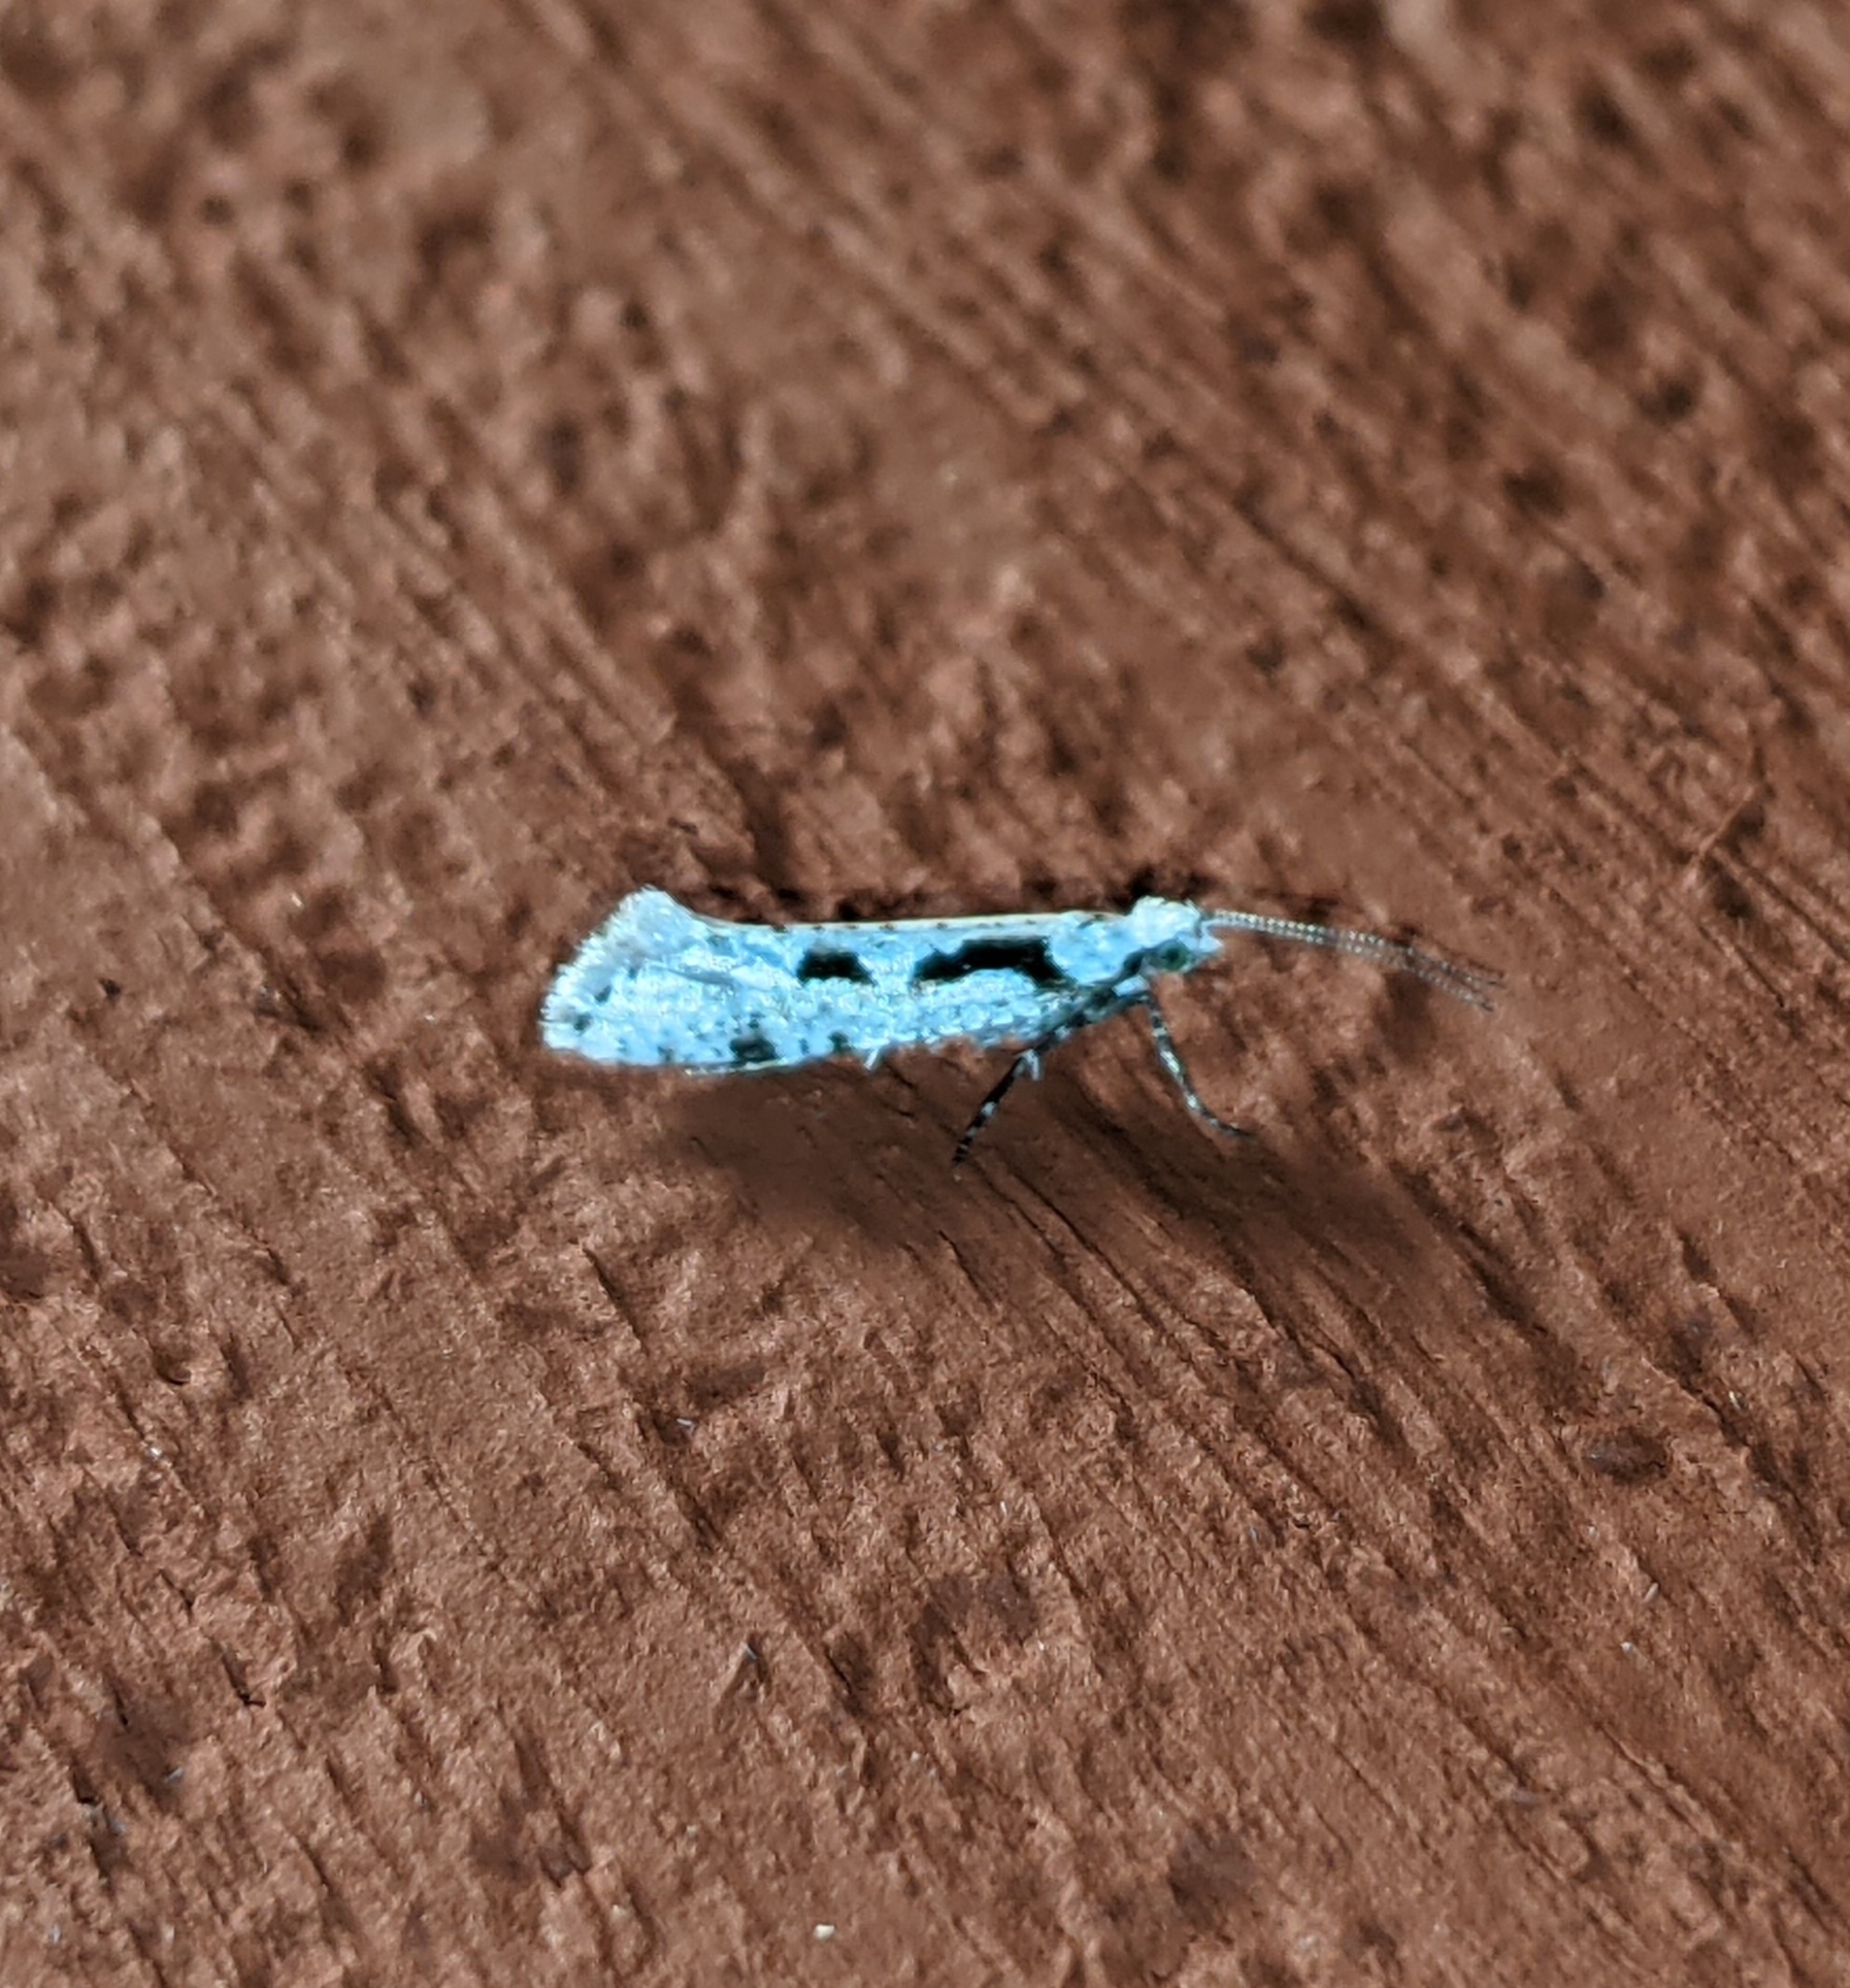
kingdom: Animalia
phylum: Arthropoda
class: Insecta
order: Lepidoptera
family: Plutellidae
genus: Rhigognostis
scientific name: Rhigognostis interrupta
